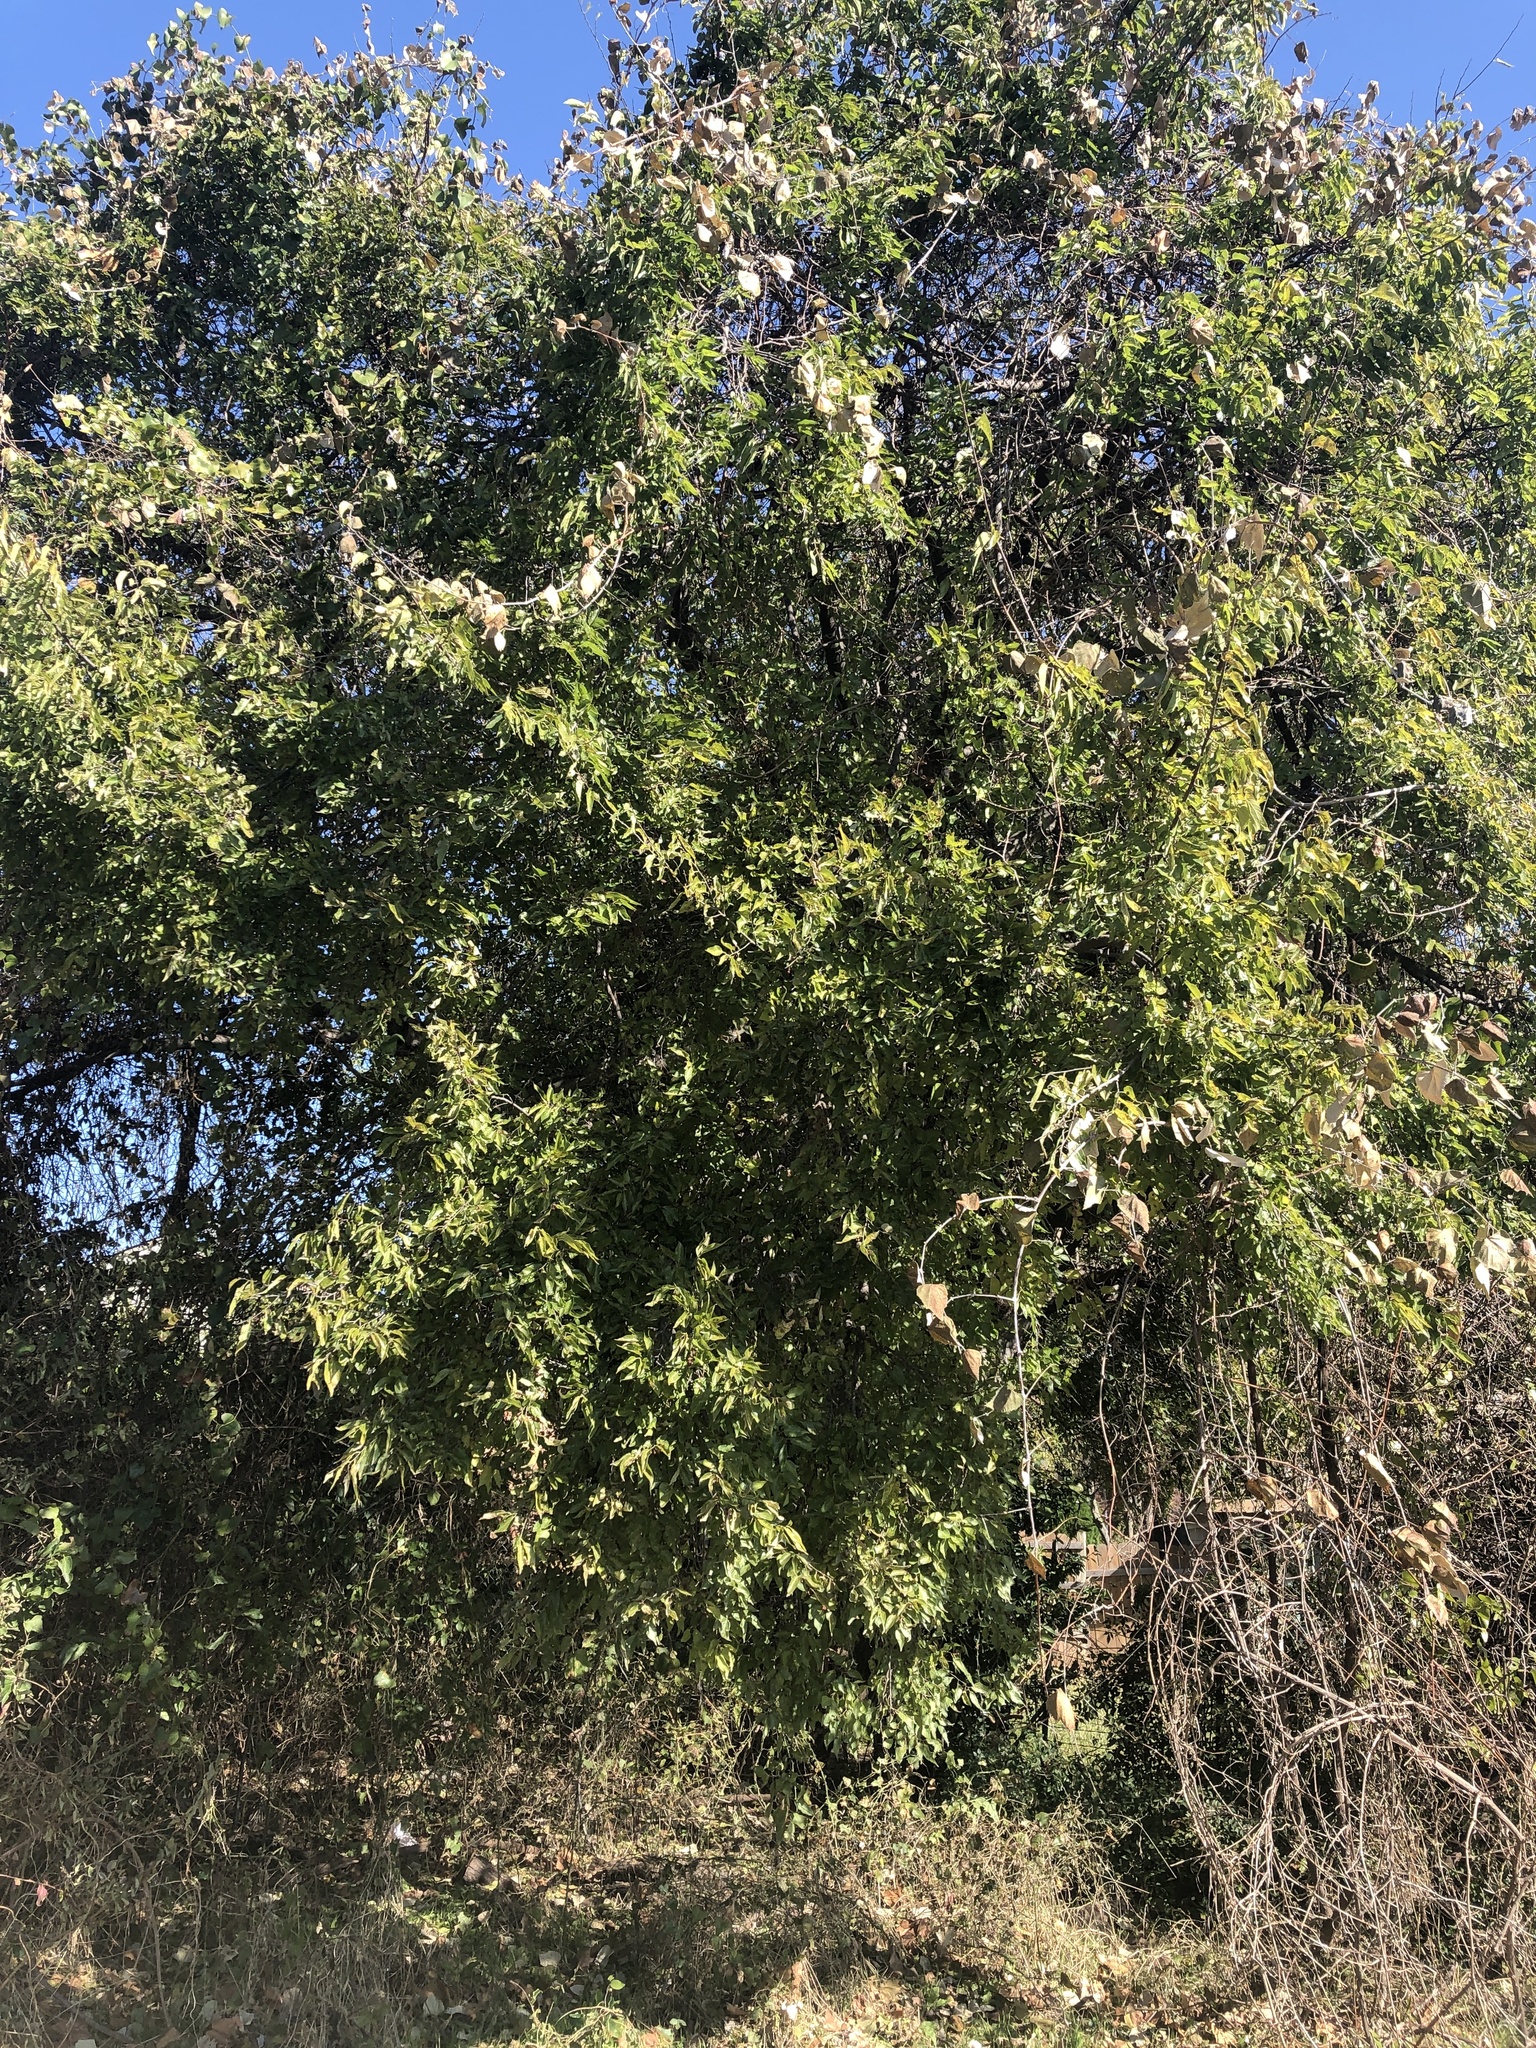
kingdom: Plantae
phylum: Tracheophyta
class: Magnoliopsida
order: Rosales
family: Cannabaceae
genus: Celtis
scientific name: Celtis laevigata
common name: Sugarberry
